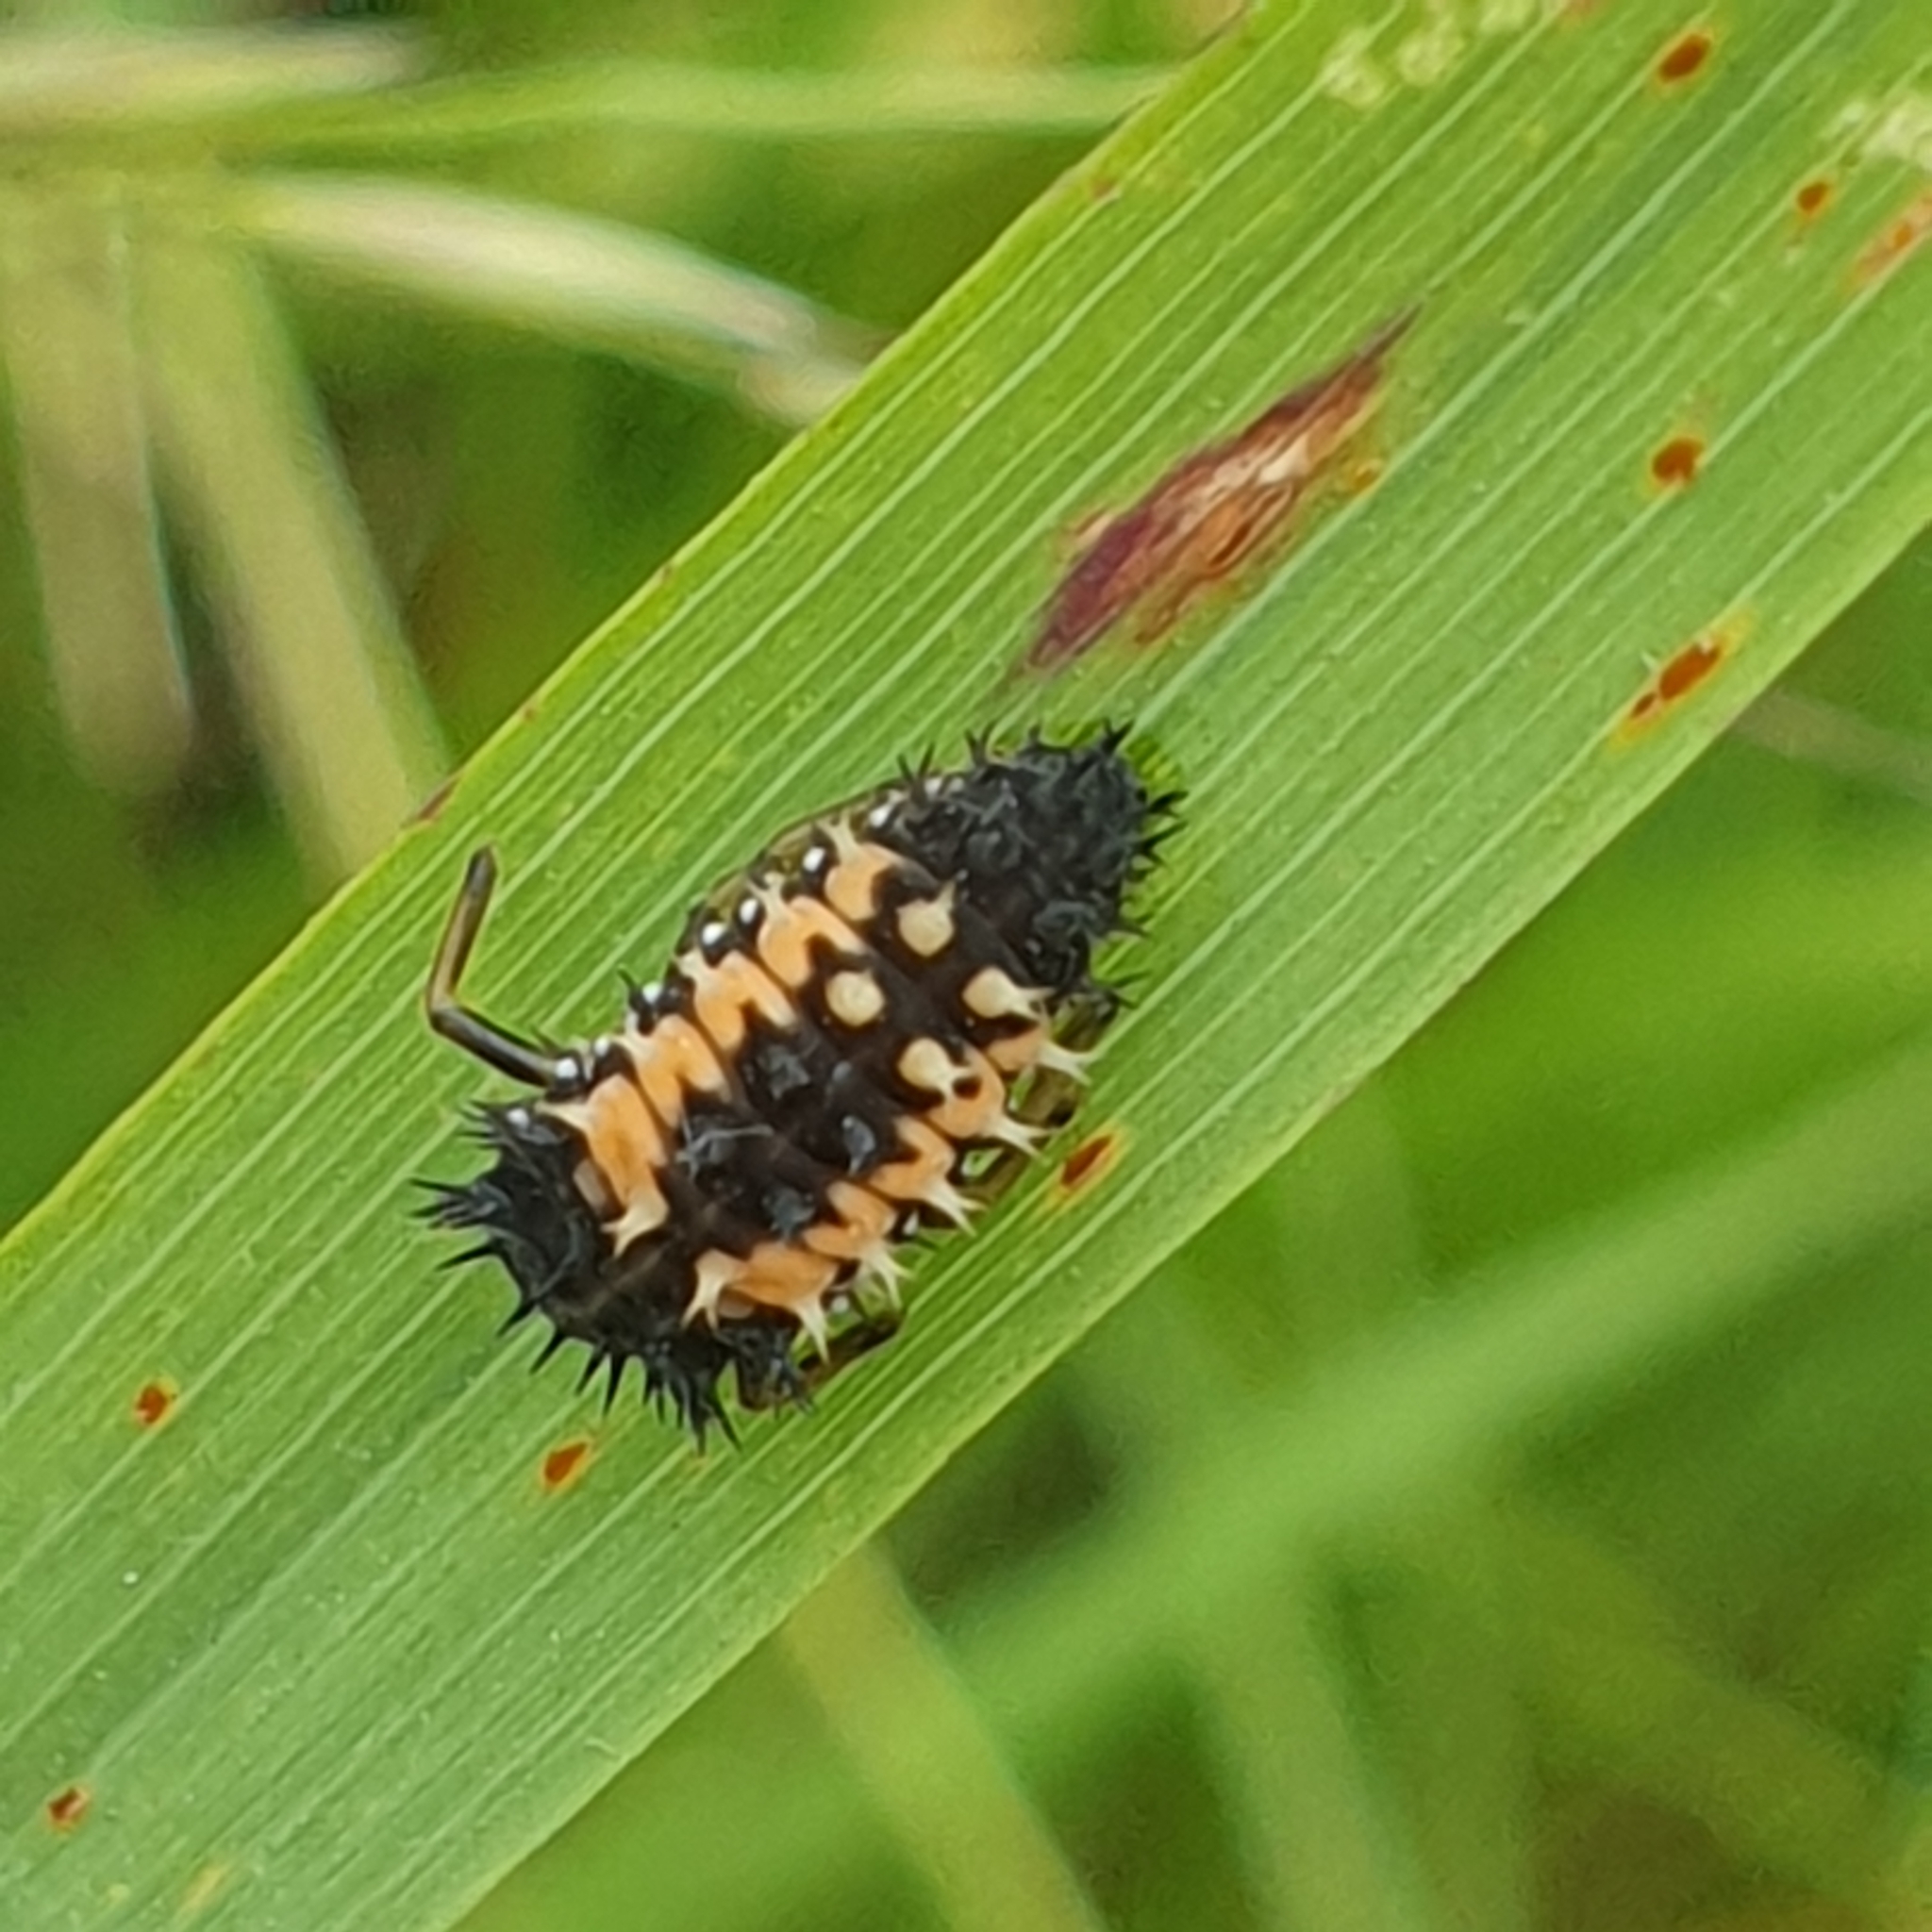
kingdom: Animalia
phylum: Arthropoda
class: Insecta
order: Coleoptera
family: Coccinellidae
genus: Harmonia
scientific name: Harmonia axyridis
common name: Harlequin ladybird
